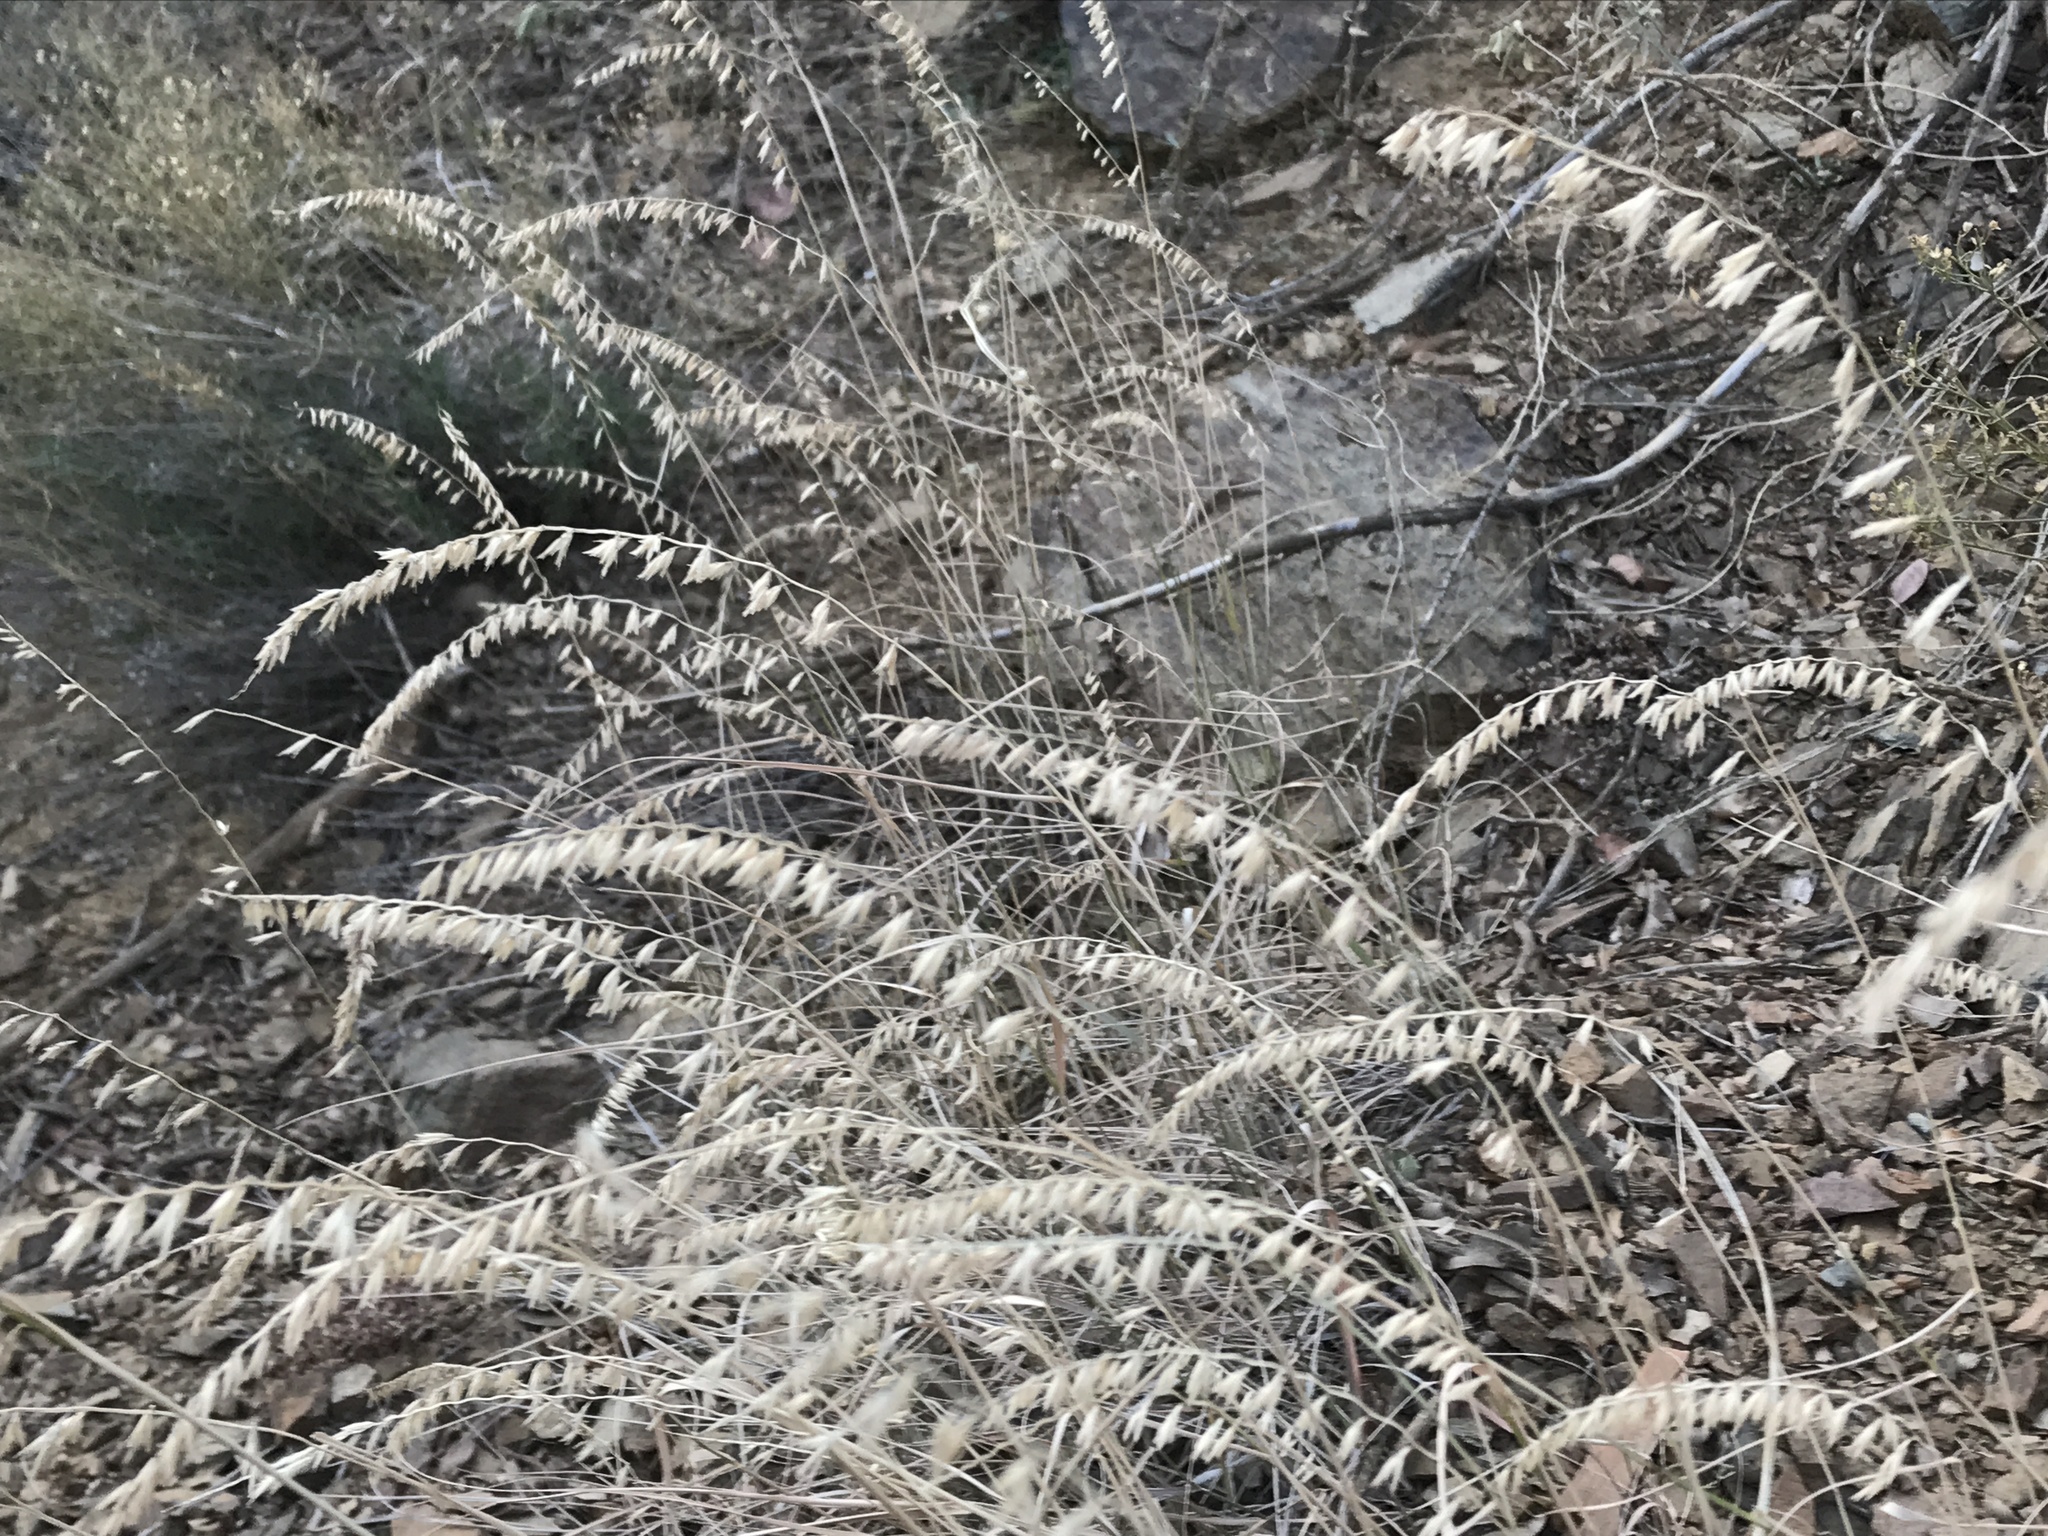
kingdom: Plantae
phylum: Tracheophyta
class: Liliopsida
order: Poales
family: Poaceae
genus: Bouteloua
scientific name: Bouteloua curtipendula
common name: Side-oats grama
